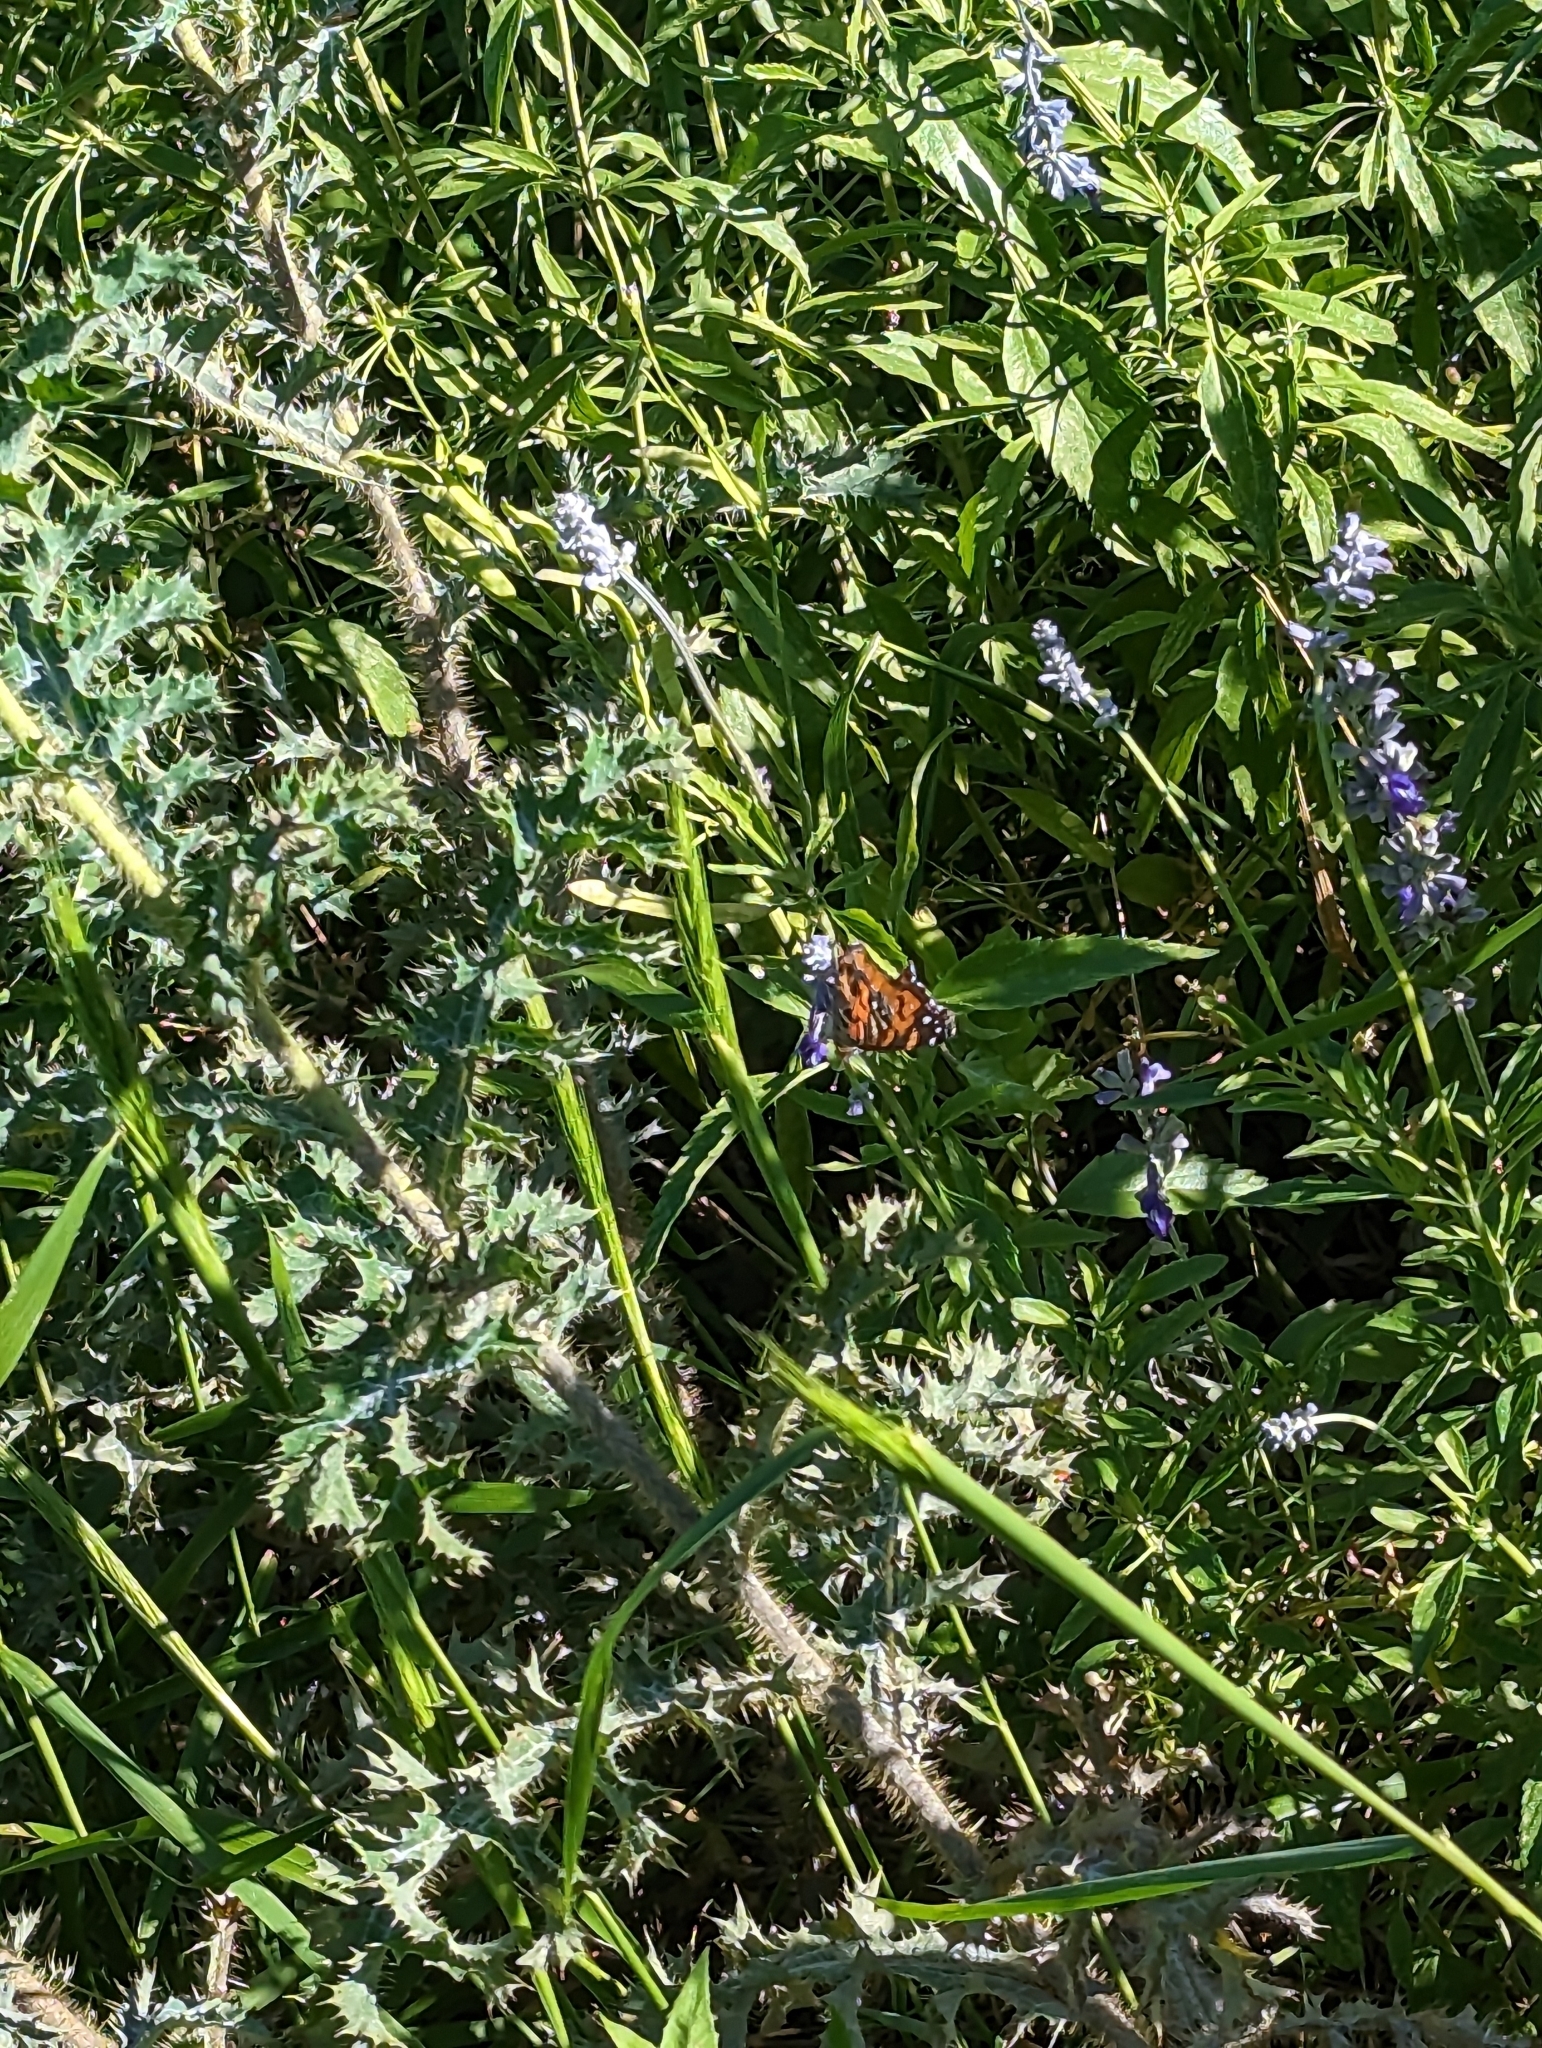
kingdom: Animalia
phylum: Arthropoda
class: Insecta
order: Lepidoptera
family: Nymphalidae
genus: Vanessa
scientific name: Vanessa virginiensis
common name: American lady
